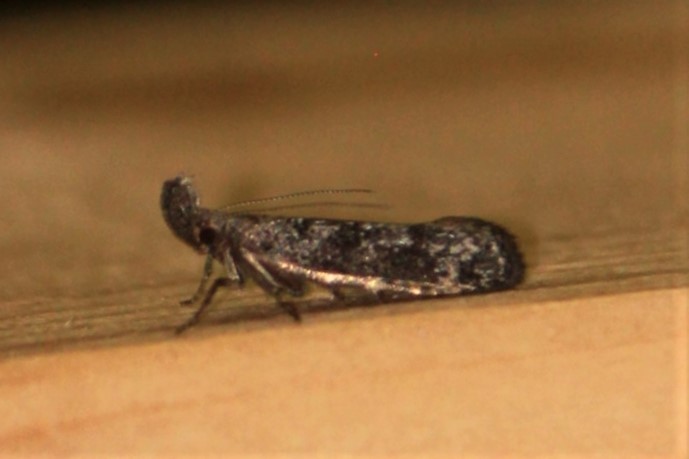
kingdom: Animalia
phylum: Arthropoda
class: Insecta
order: Lepidoptera
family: Gelechiidae
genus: Dichomeris
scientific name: Dichomeris inversella
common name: Inverse dichomeris moth
